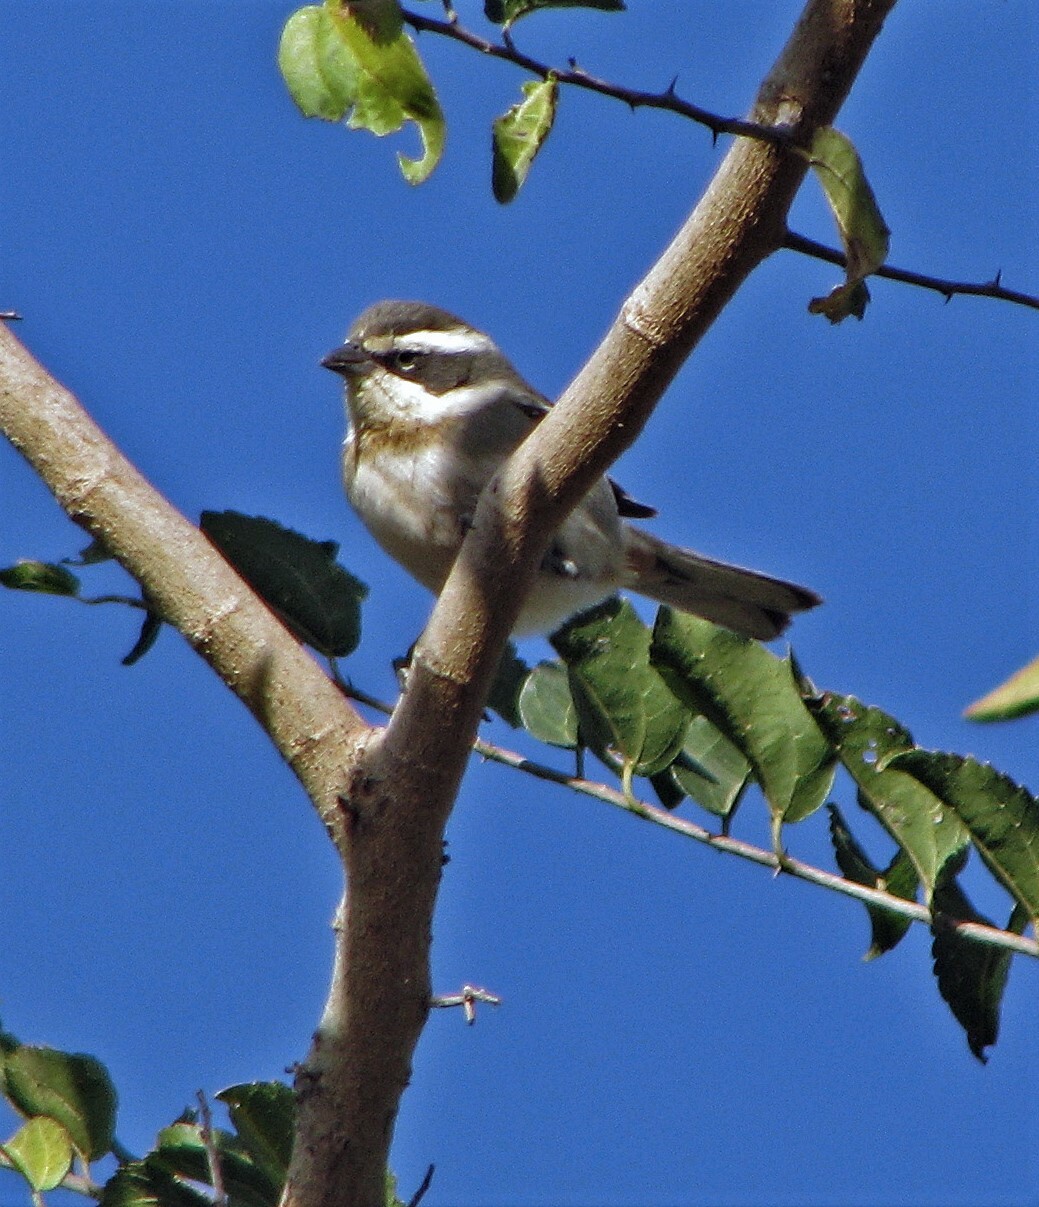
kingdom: Animalia
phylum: Chordata
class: Aves
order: Passeriformes
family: Thraupidae
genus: Microspingus
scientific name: Microspingus torquatus
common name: Ringed warbling-finch
